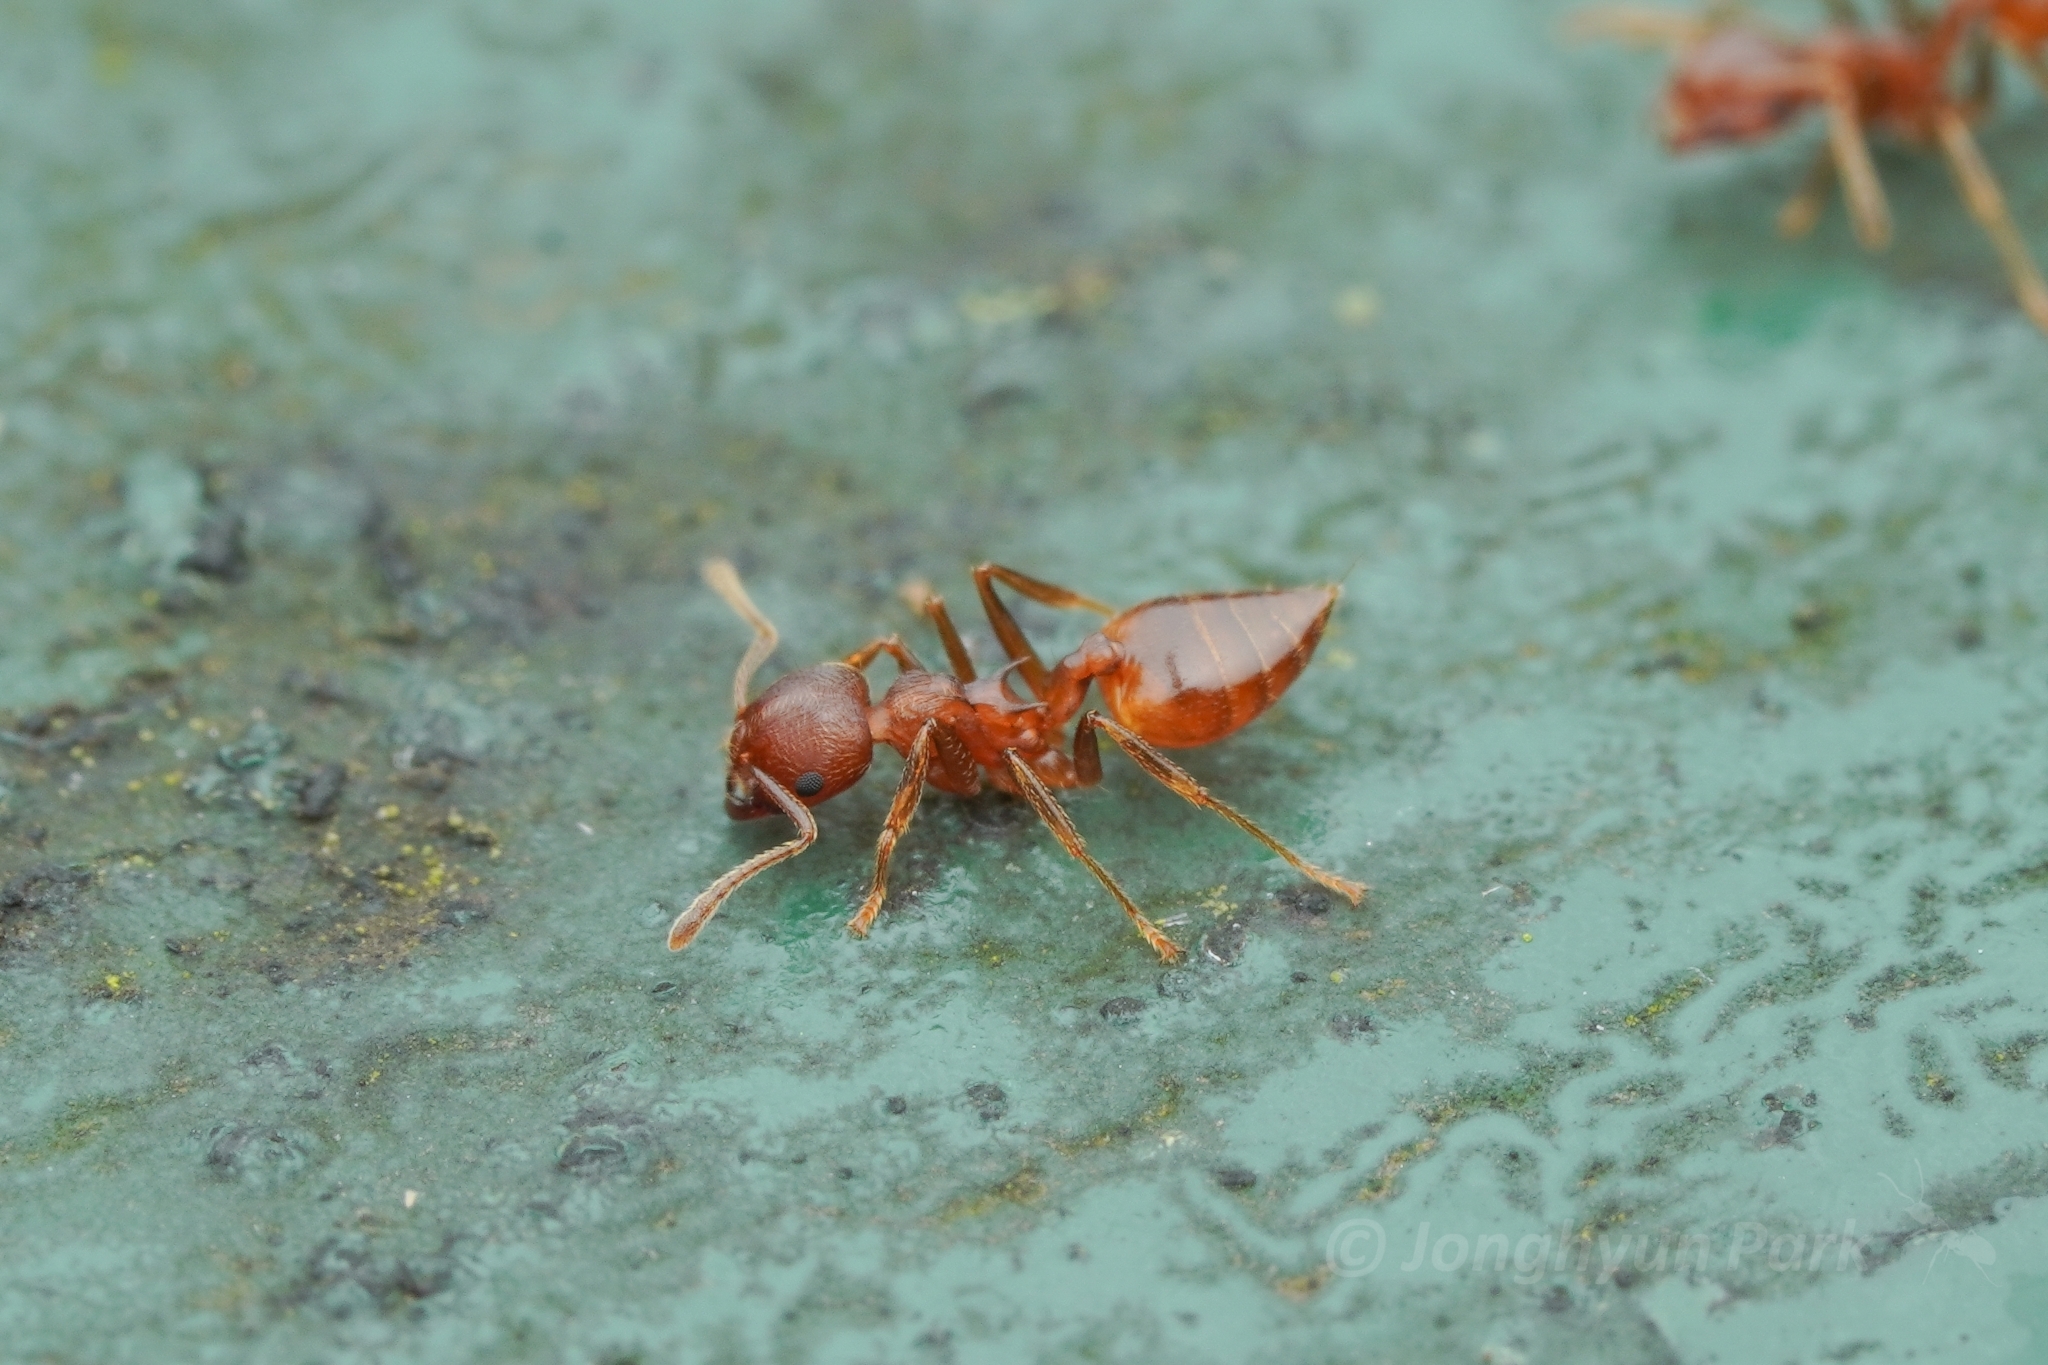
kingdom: Animalia
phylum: Arthropoda
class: Insecta
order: Hymenoptera
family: Formicidae
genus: Crematogaster
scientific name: Crematogaster rogenhoferi
